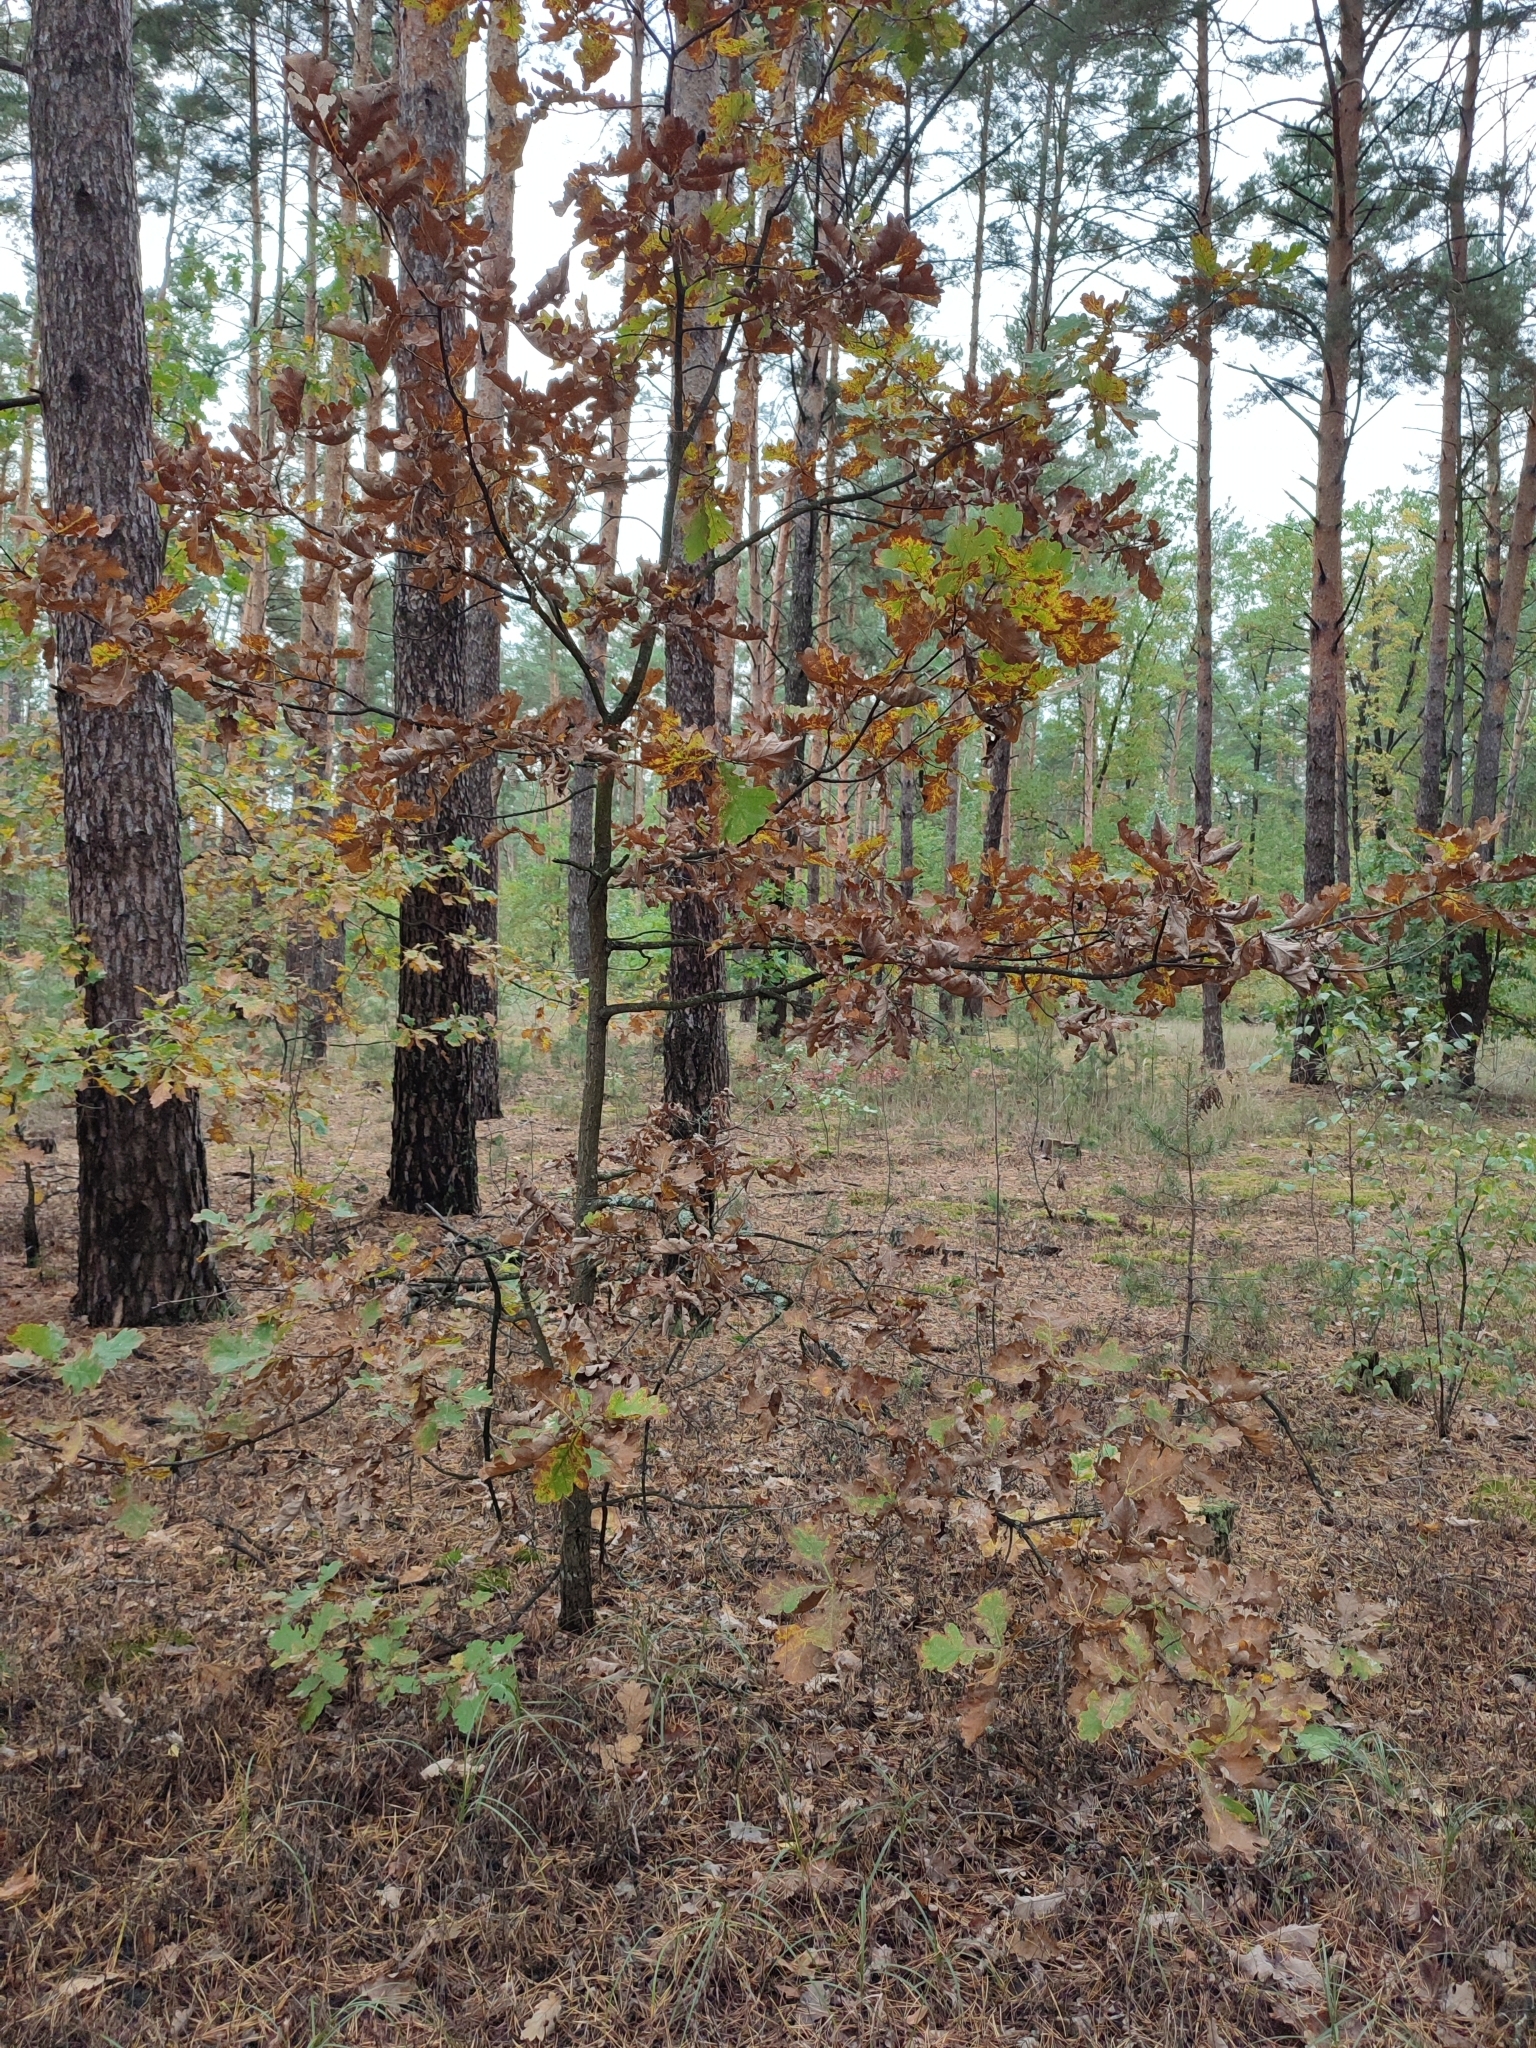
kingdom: Plantae
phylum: Tracheophyta
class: Magnoliopsida
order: Fagales
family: Fagaceae
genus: Quercus
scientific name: Quercus robur
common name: Pedunculate oak
